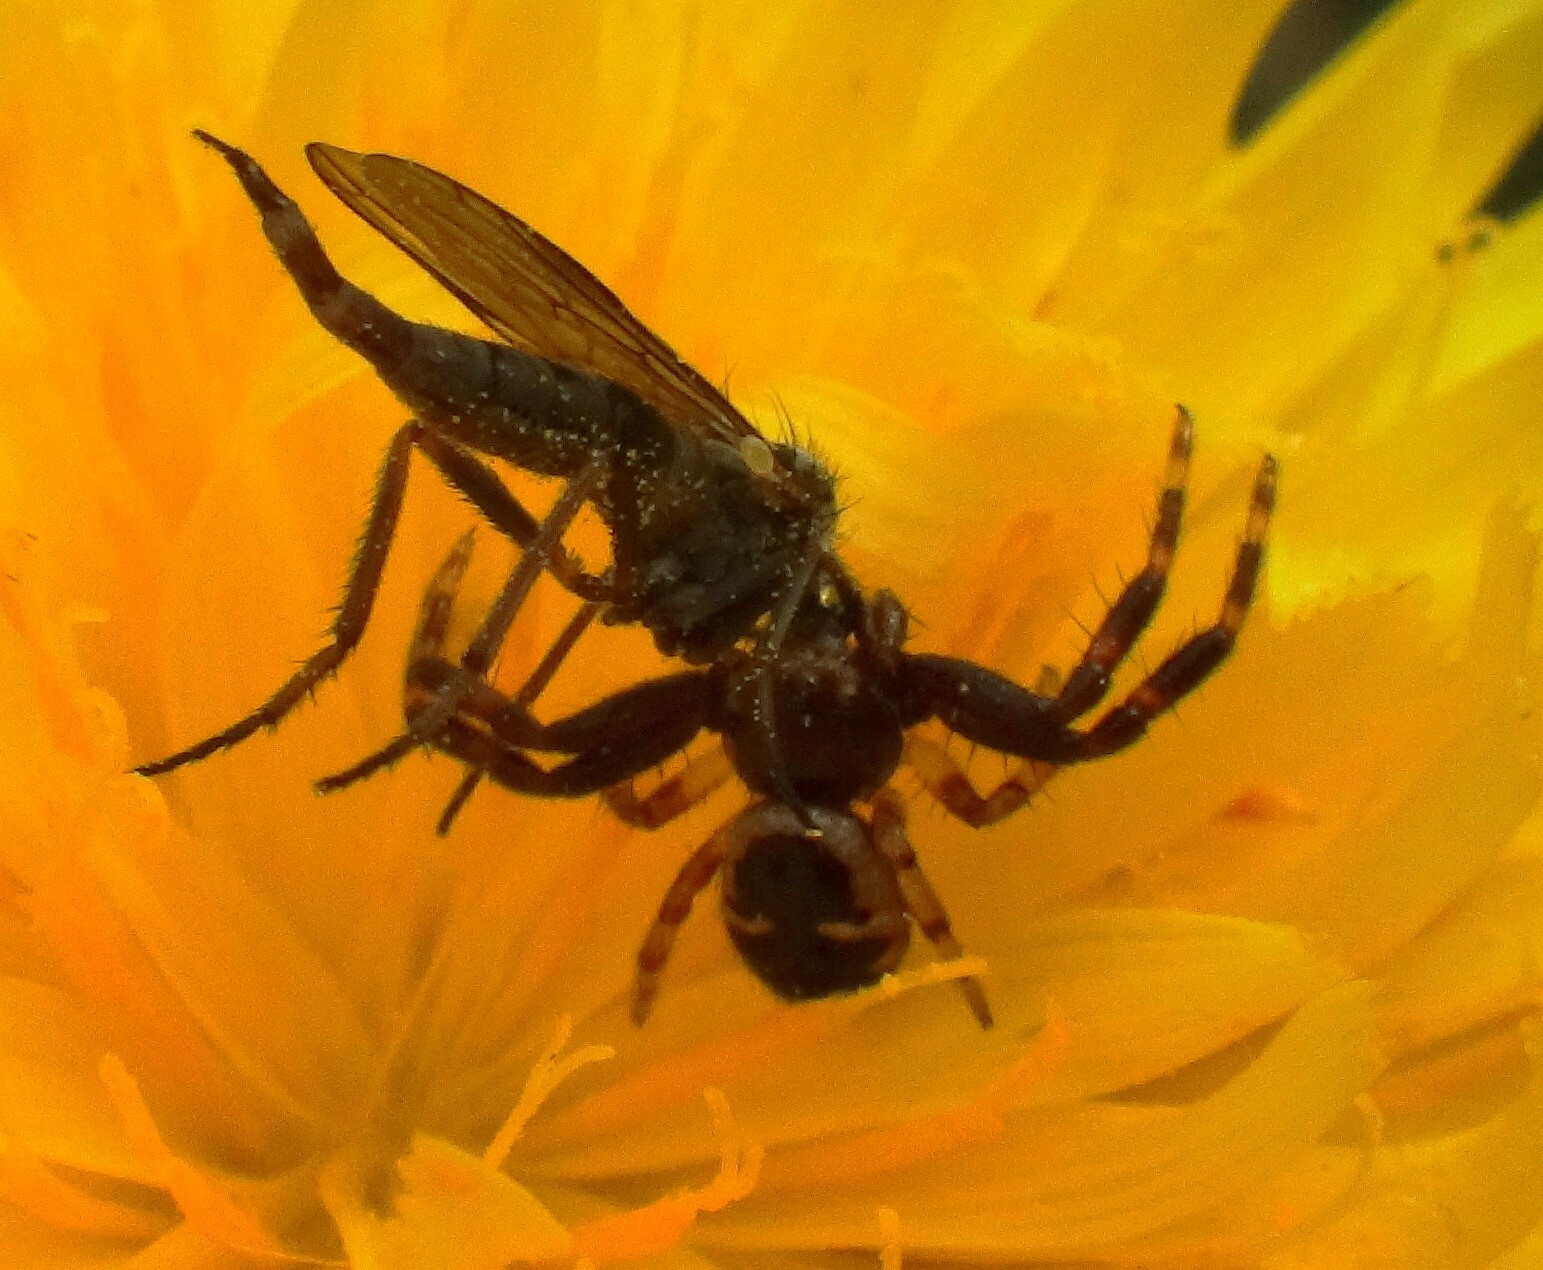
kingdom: Animalia
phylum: Arthropoda
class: Arachnida
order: Araneae
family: Thomisidae
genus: Synema
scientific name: Synema globosum
